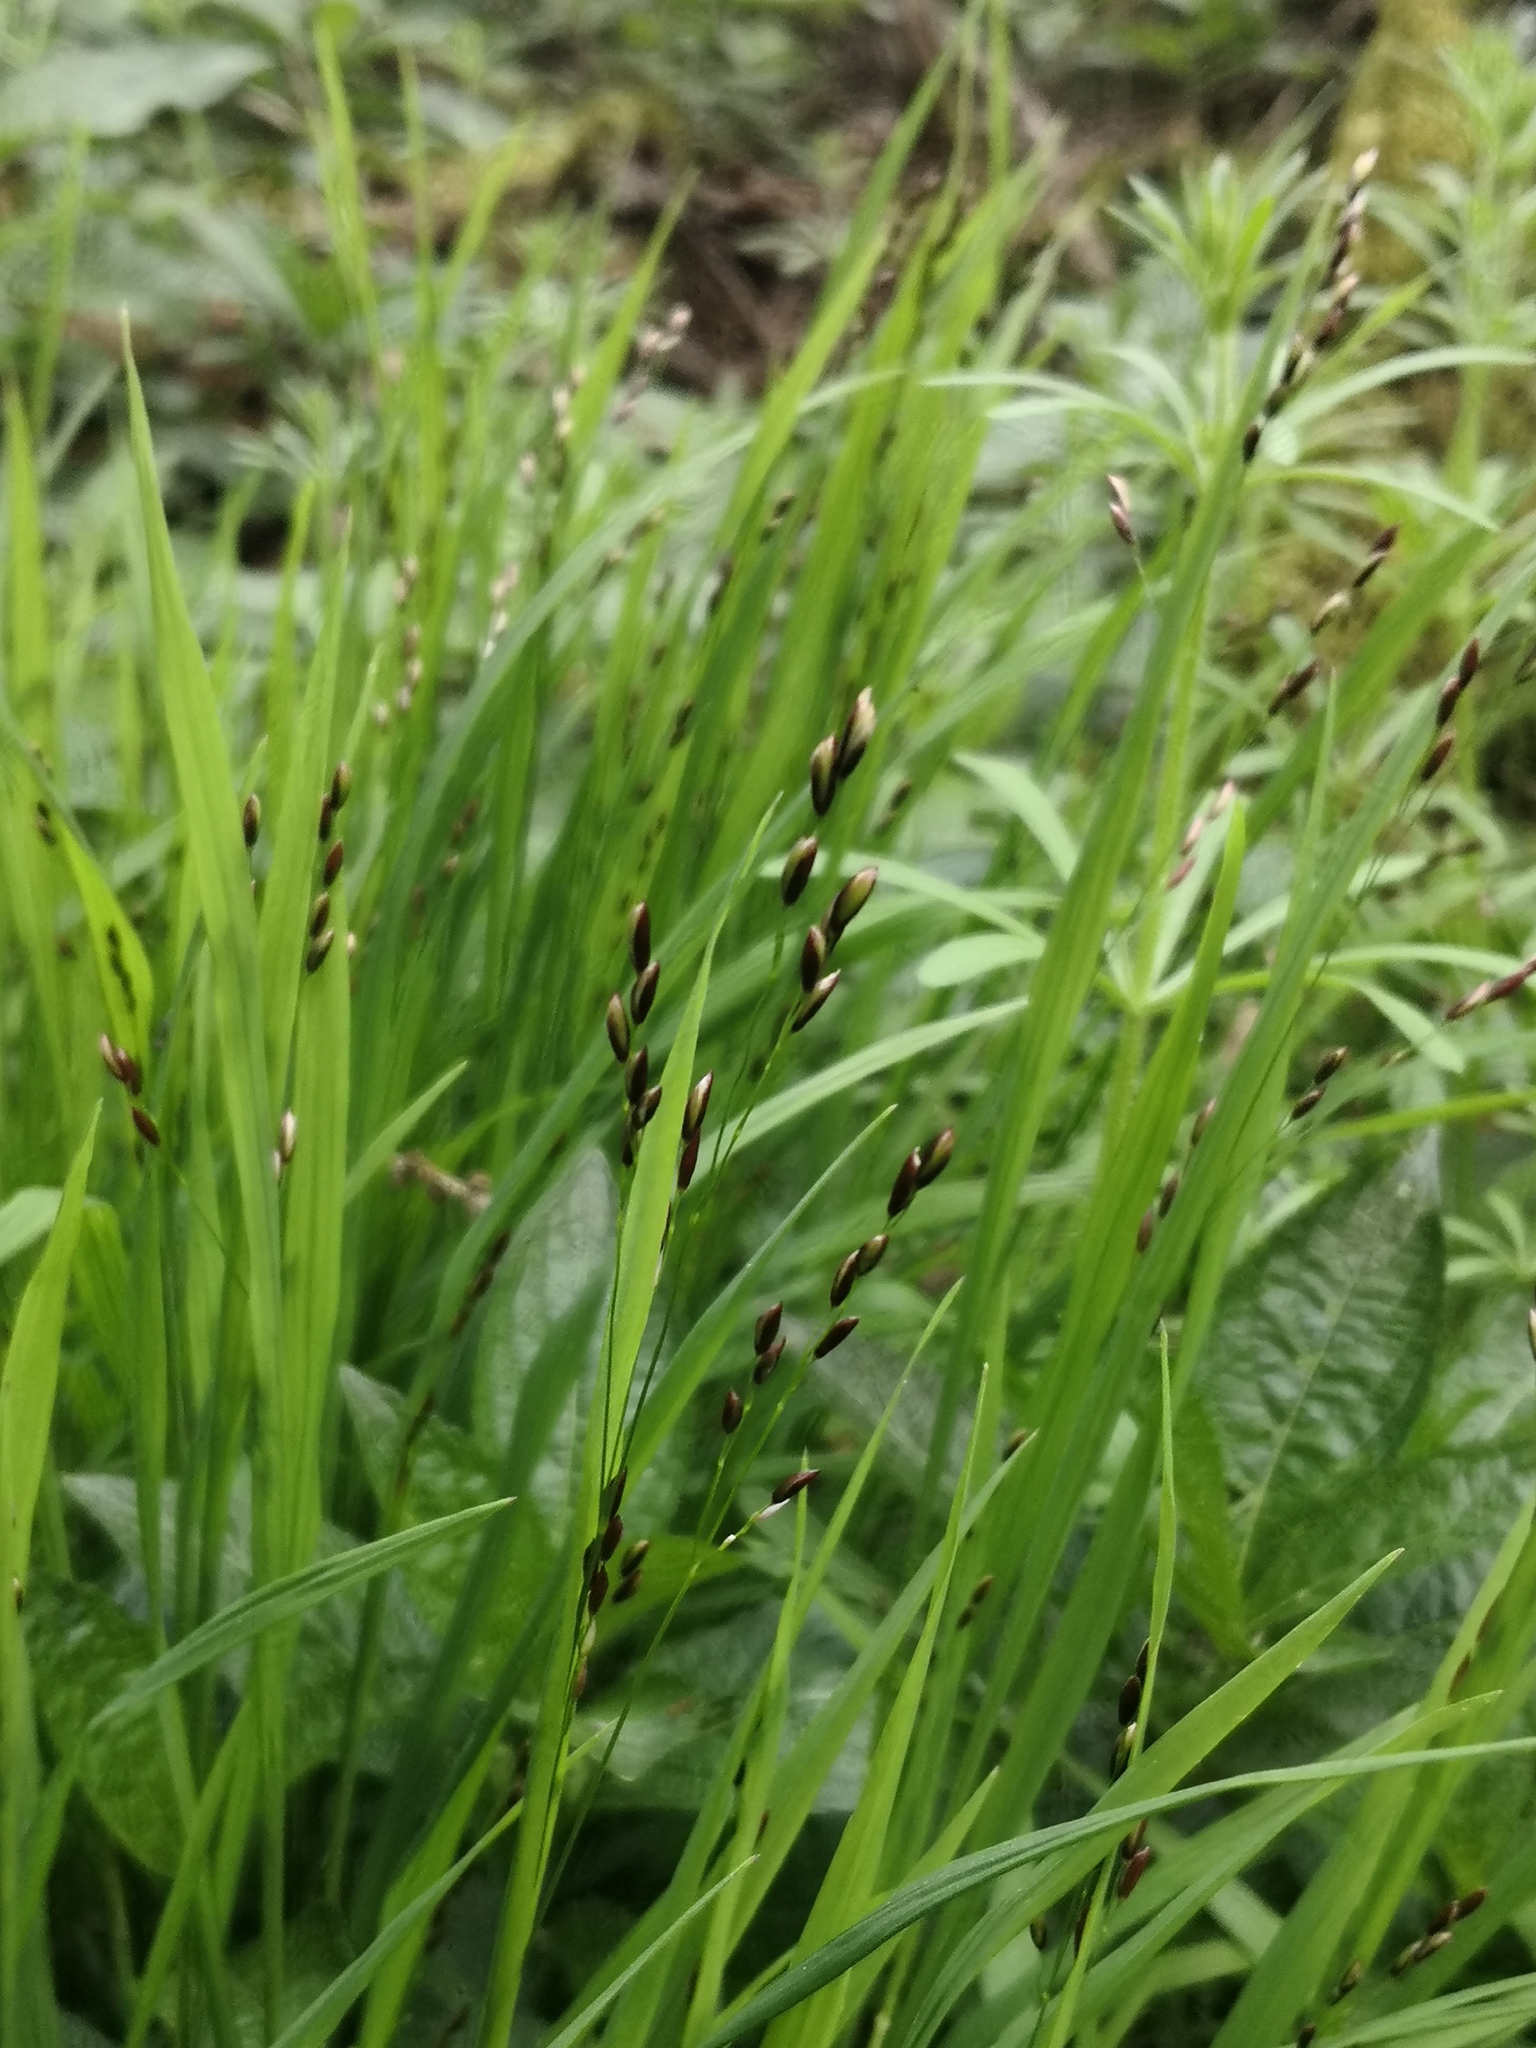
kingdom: Plantae
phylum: Tracheophyta
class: Liliopsida
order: Poales
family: Poaceae
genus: Melica
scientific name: Melica uniflora
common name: Wood melick
